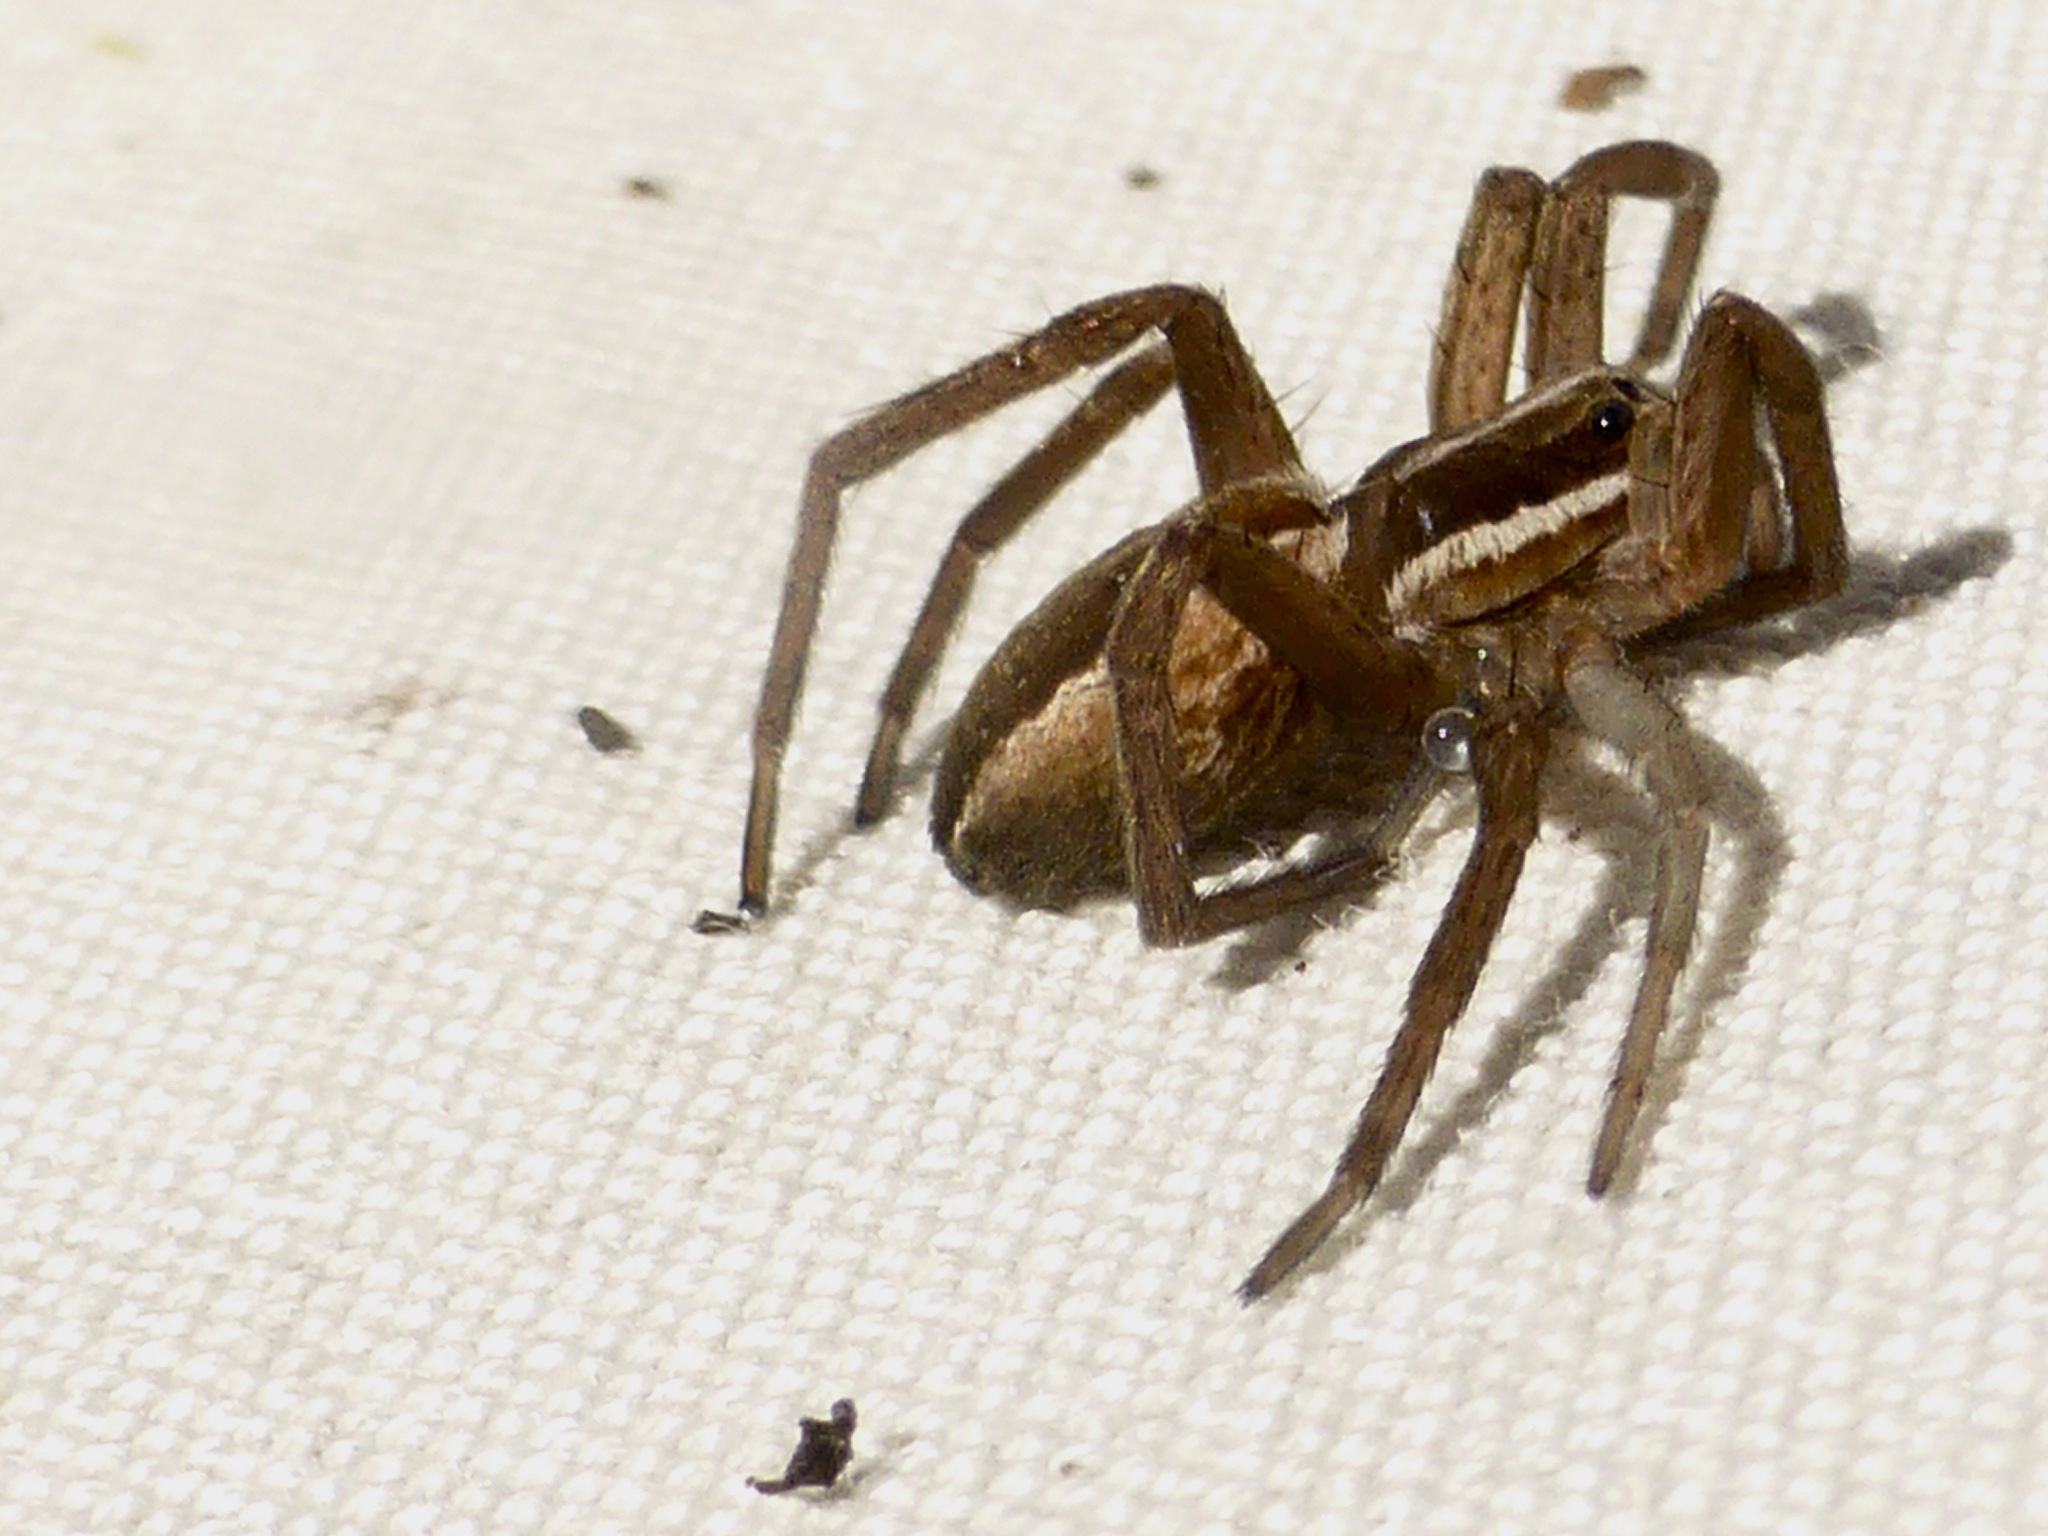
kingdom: Animalia
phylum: Arthropoda
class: Arachnida
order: Araneae
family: Pisauridae
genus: Dolomedes
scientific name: Dolomedes minor
